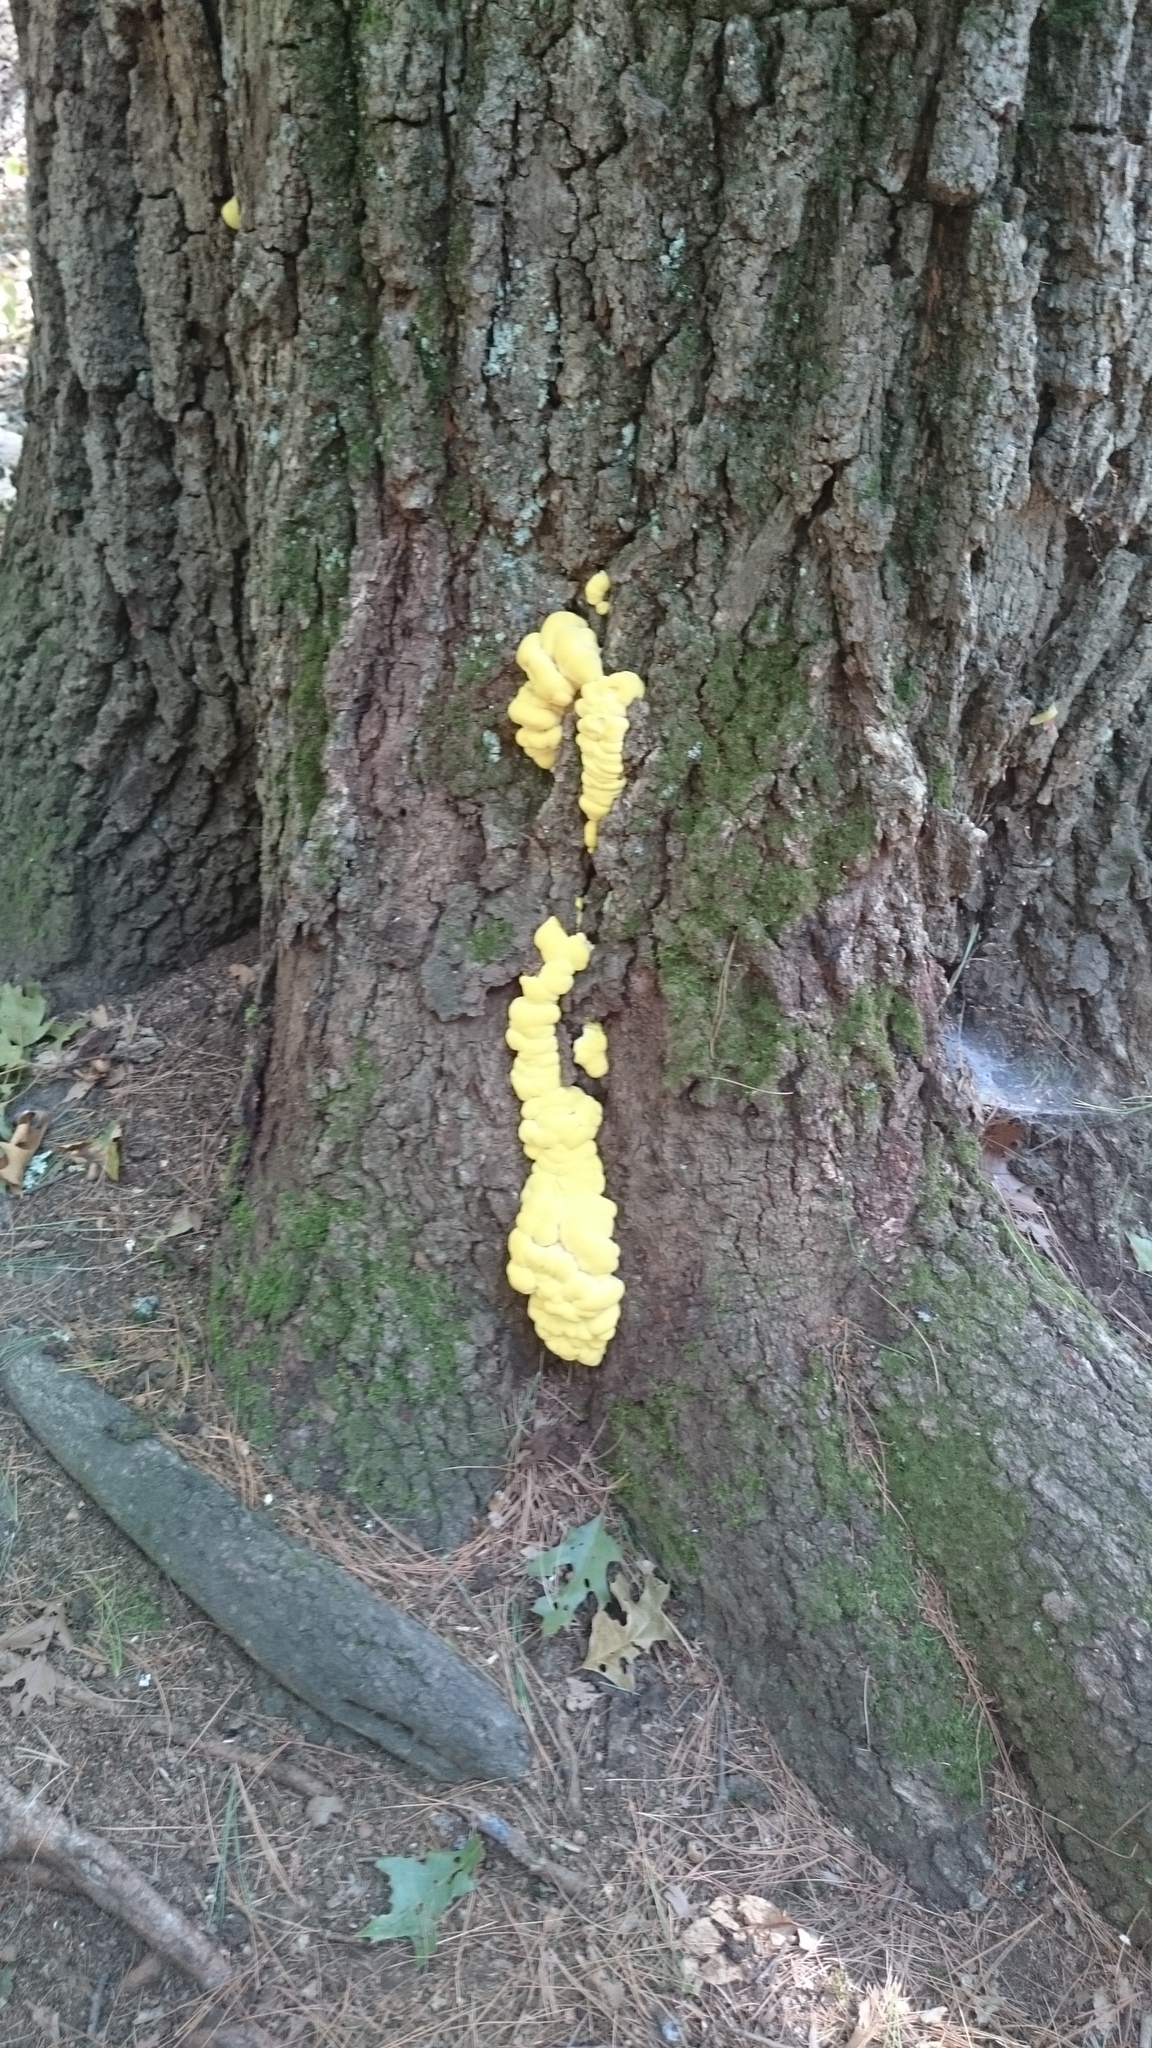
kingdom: Fungi
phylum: Basidiomycota
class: Agaricomycetes
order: Polyporales
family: Laetiporaceae
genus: Laetiporus
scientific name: Laetiporus sulphureus
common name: Chicken of the woods
